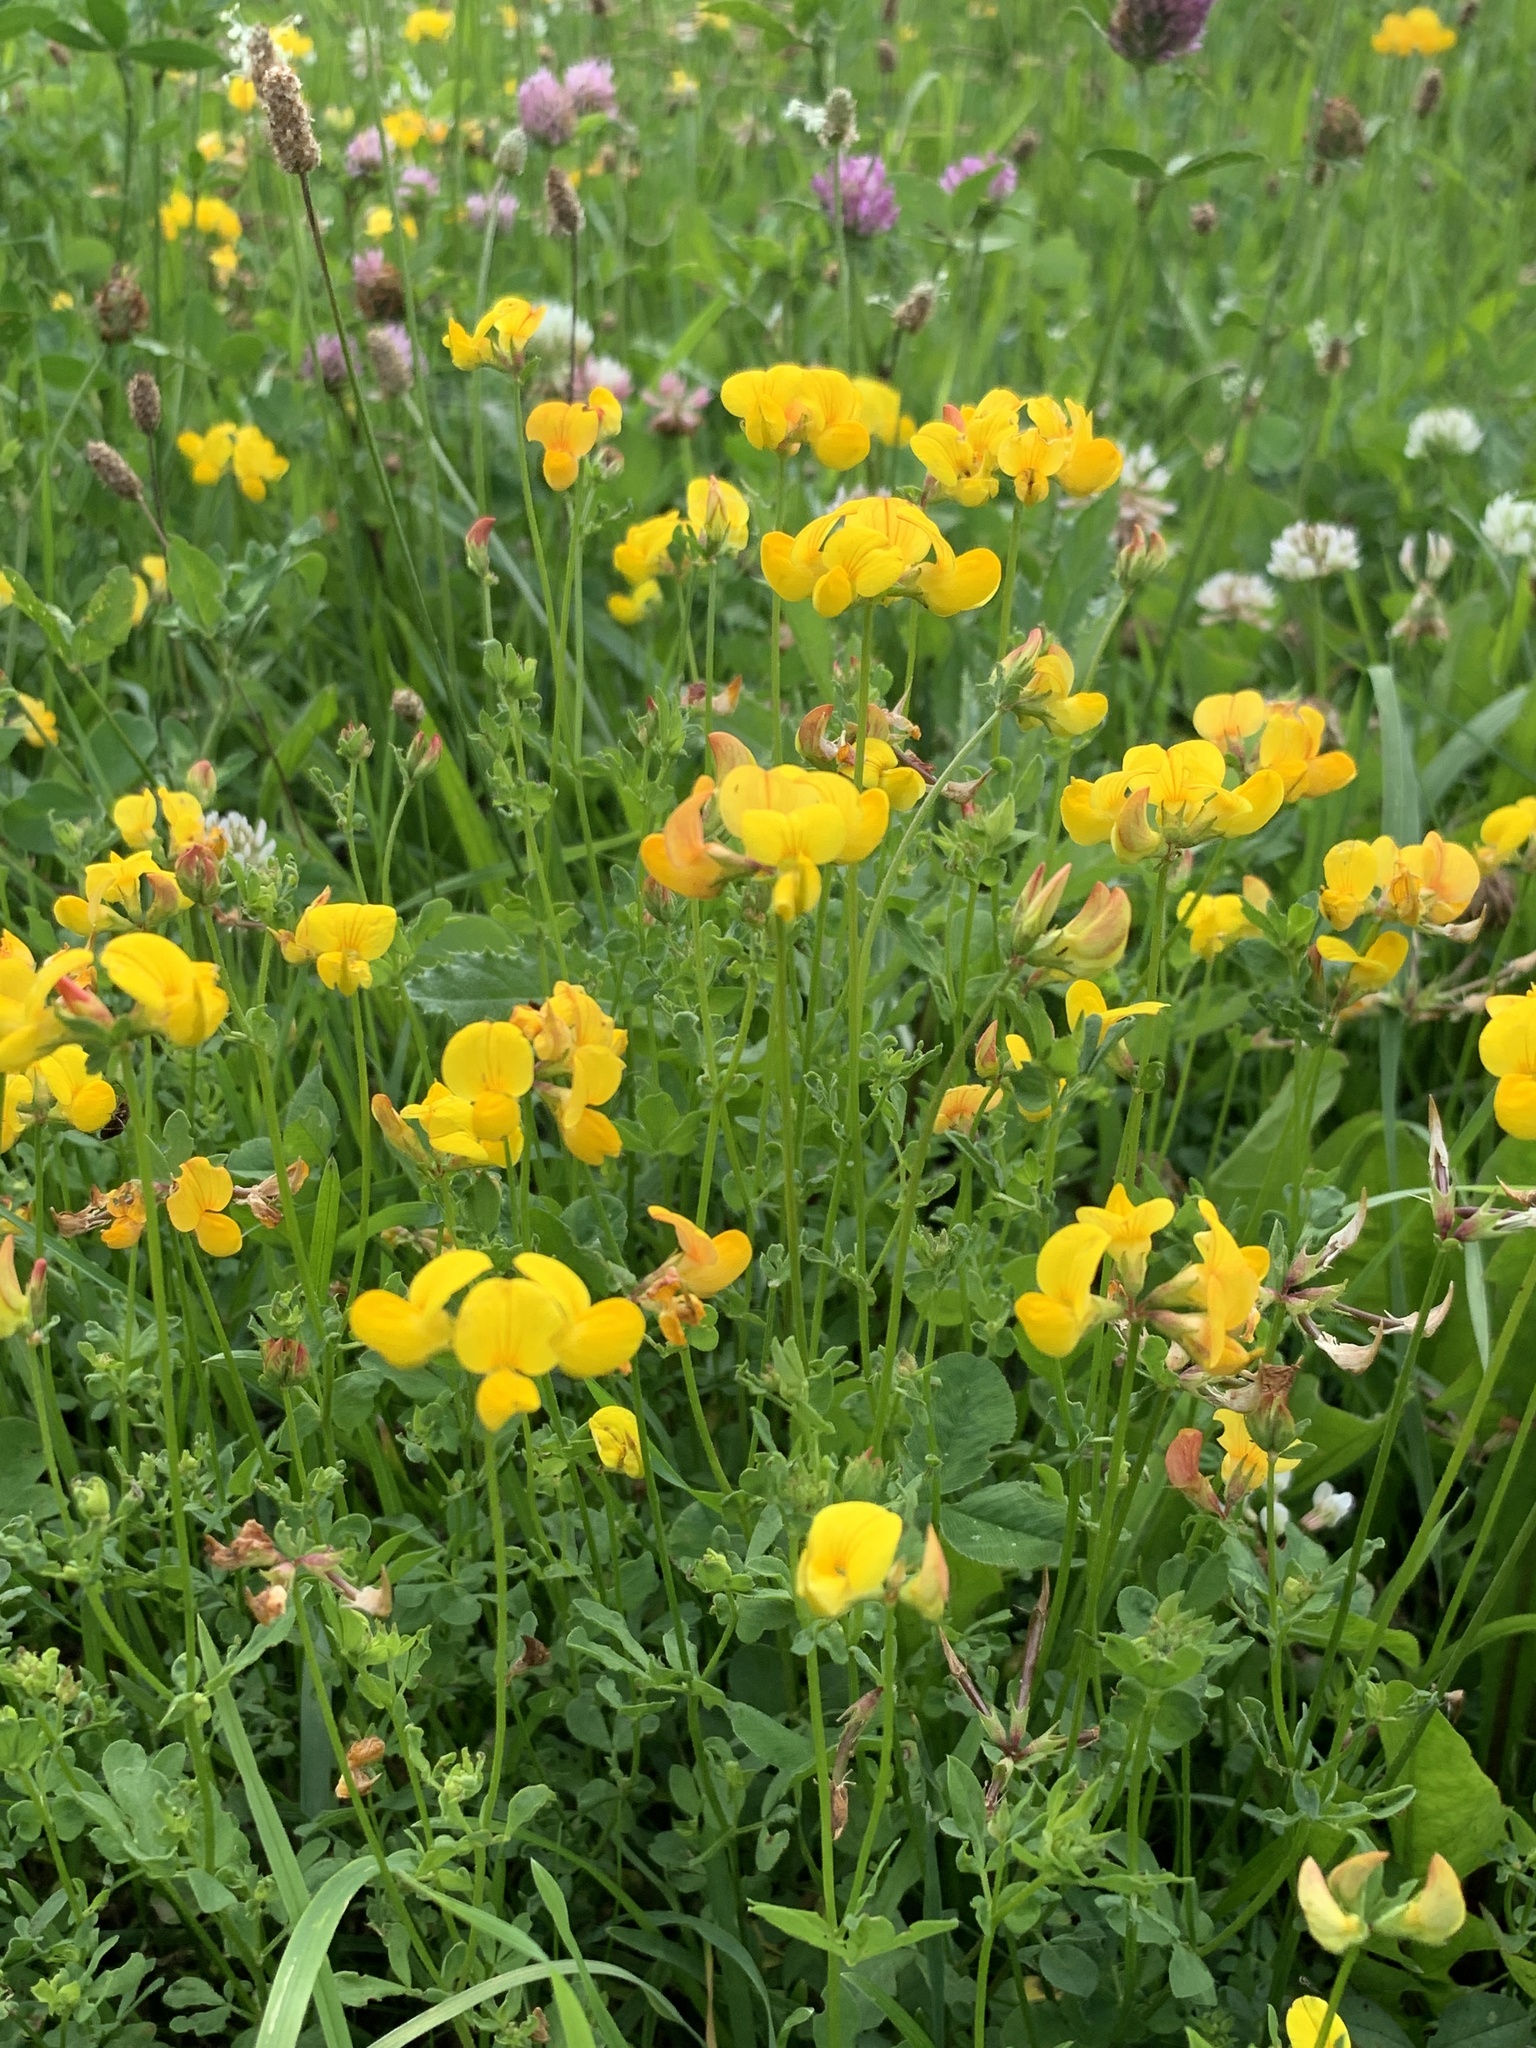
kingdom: Plantae
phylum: Tracheophyta
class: Magnoliopsida
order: Fabales
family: Fabaceae
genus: Lotus
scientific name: Lotus corniculatus
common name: Common bird's-foot-trefoil
